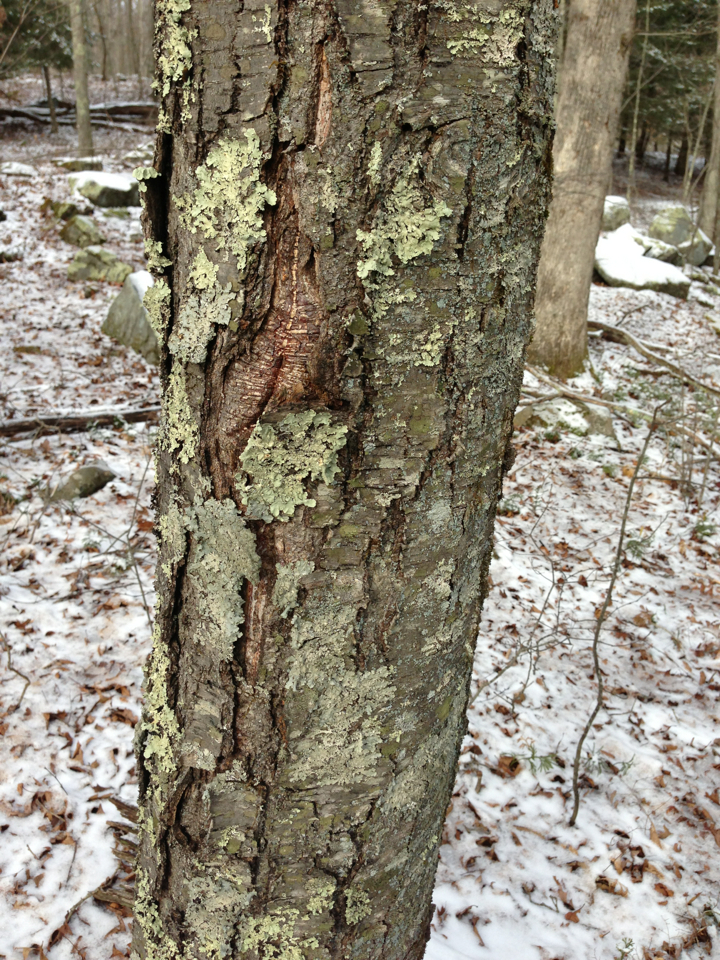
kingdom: Plantae
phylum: Tracheophyta
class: Magnoliopsida
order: Fagales
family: Betulaceae
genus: Betula
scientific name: Betula lenta
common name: Black birch
